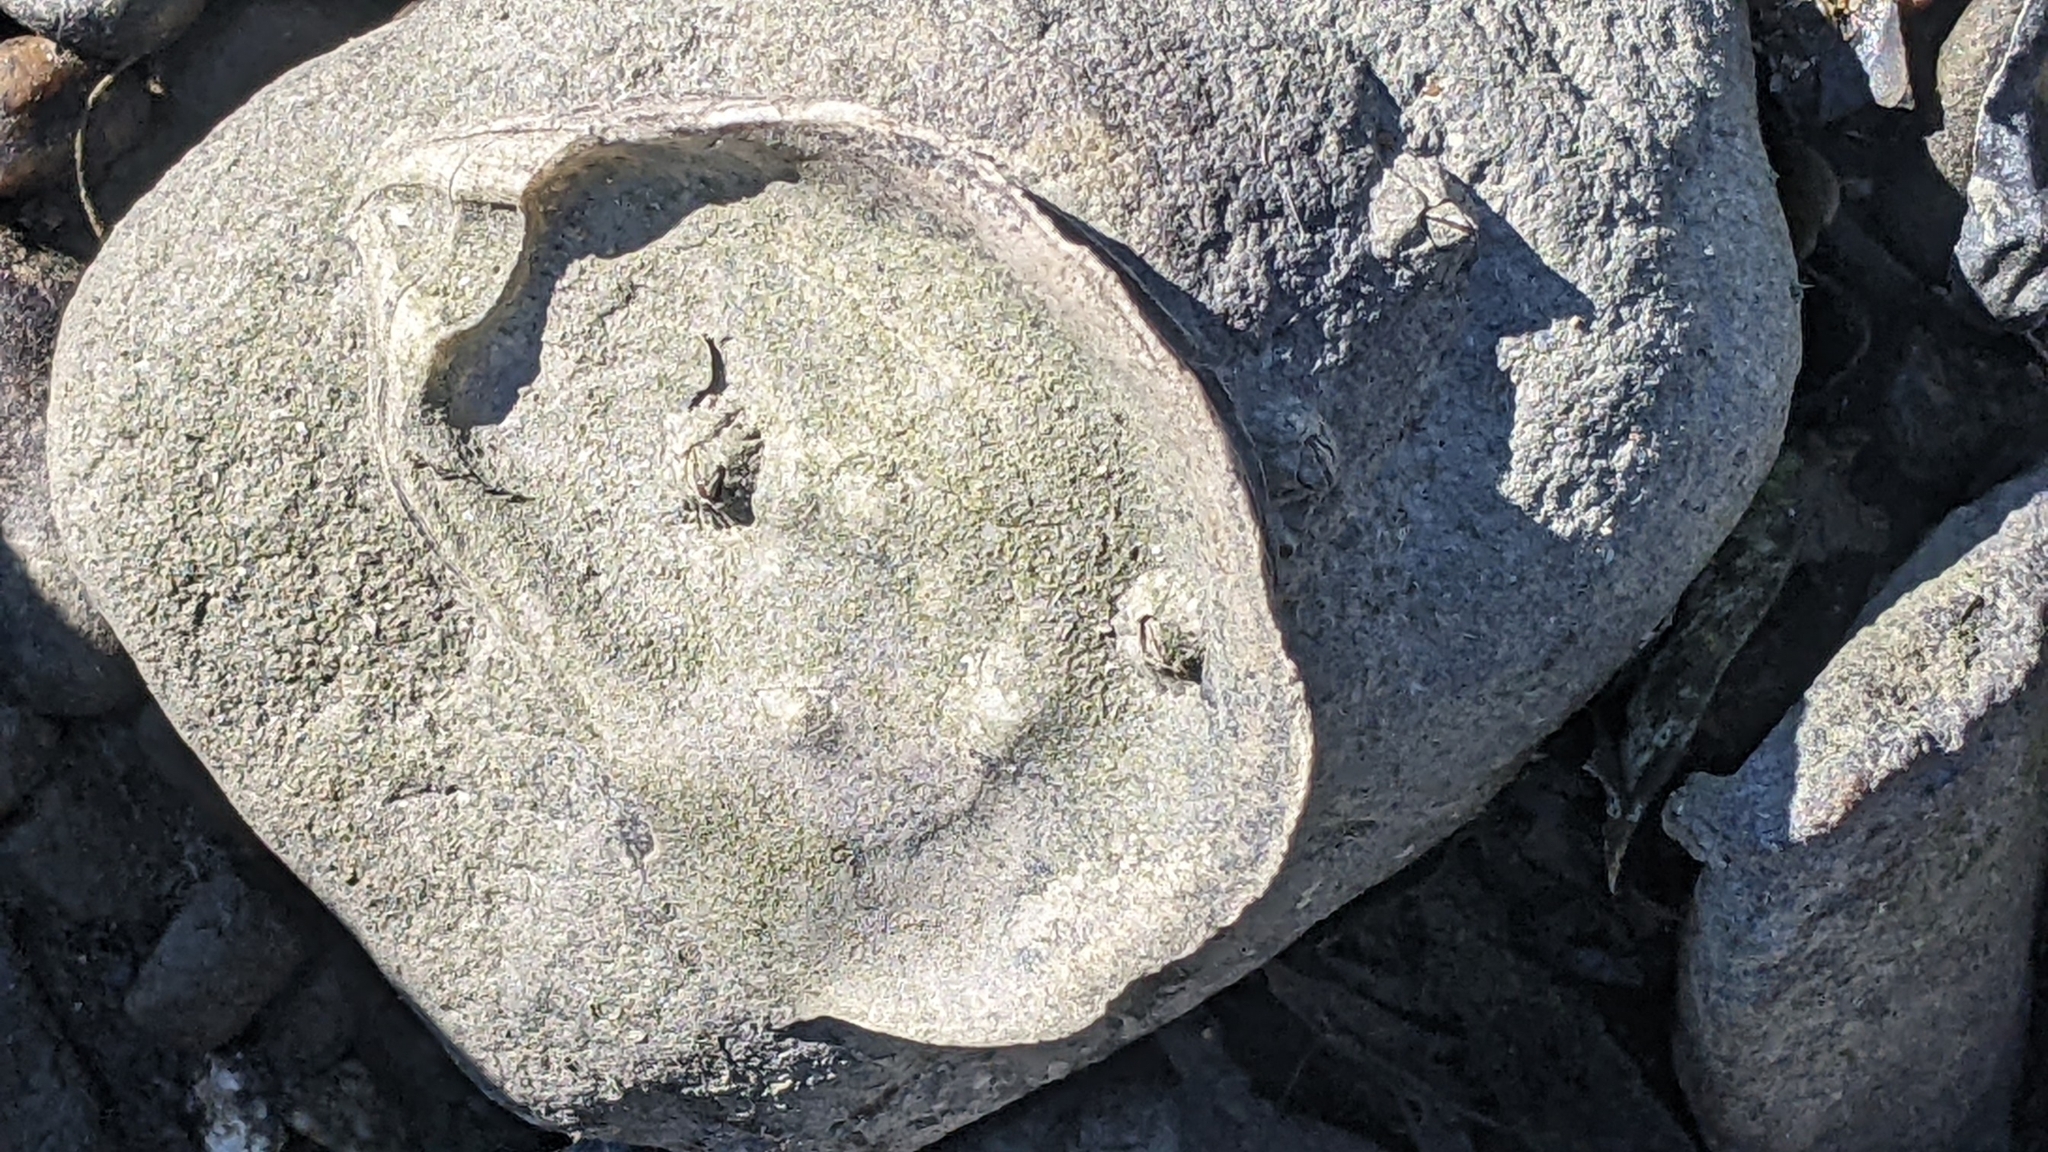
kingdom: Animalia
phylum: Mollusca
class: Bivalvia
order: Ostreida
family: Ostreidae
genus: Crassostrea
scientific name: Crassostrea virginica
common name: American oyster
